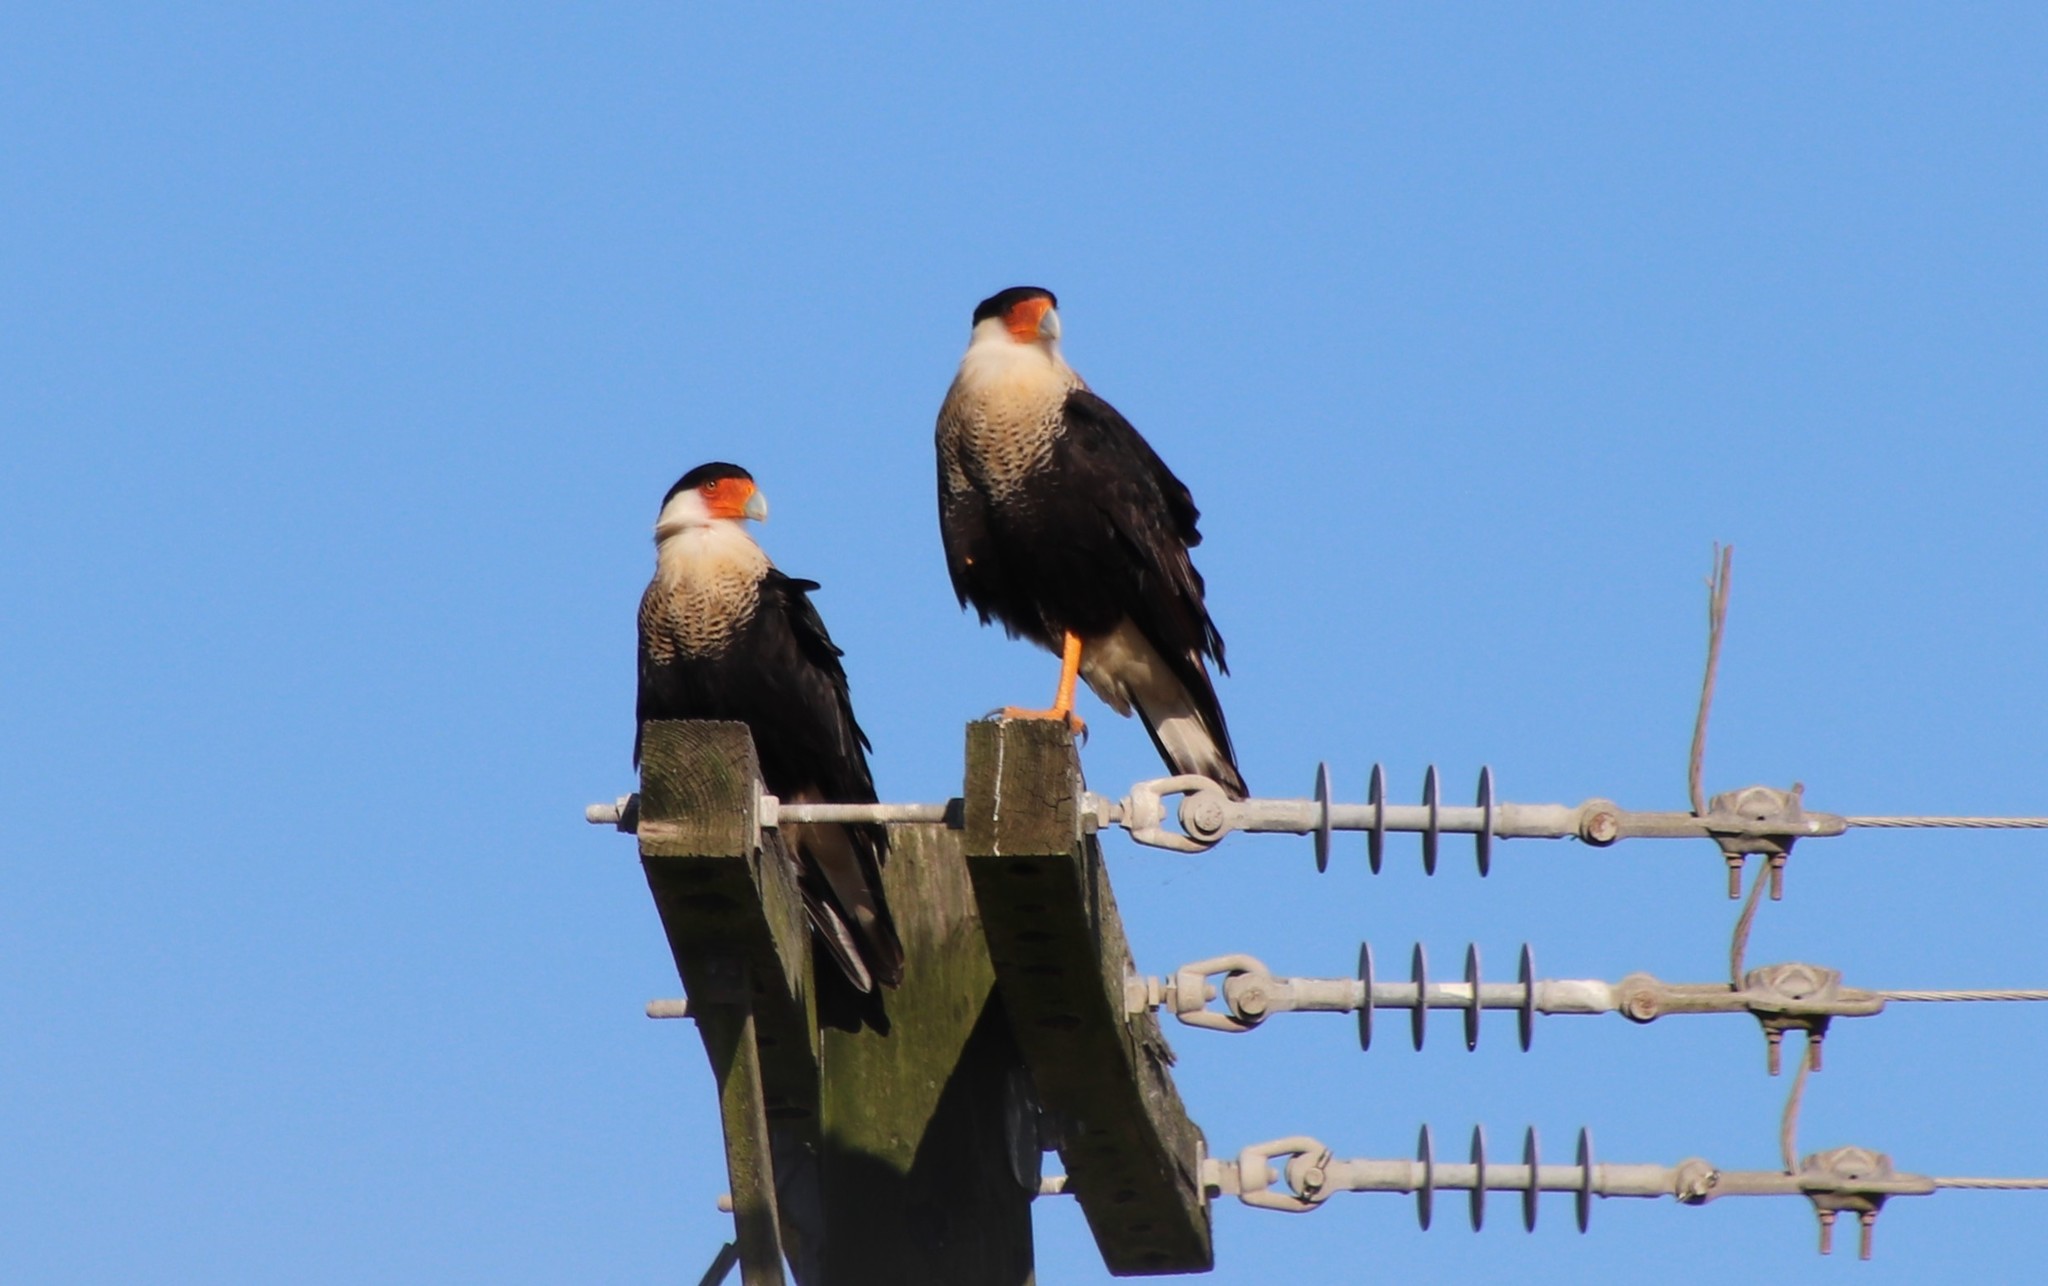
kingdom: Animalia
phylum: Chordata
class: Aves
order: Falconiformes
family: Falconidae
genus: Caracara
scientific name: Caracara plancus
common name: Southern caracara
